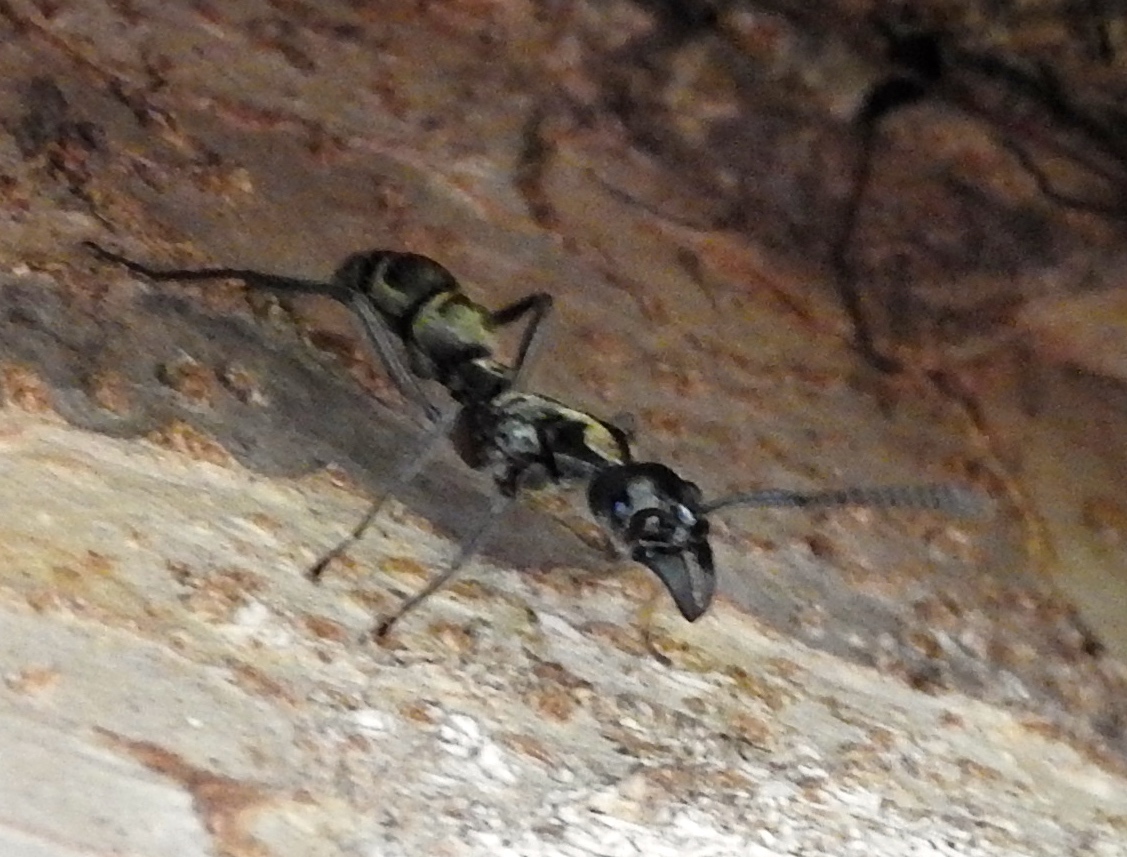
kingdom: Animalia
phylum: Arthropoda
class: Insecta
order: Hymenoptera
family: Formicidae
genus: Pachycondyla
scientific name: Pachycondyla villosa
